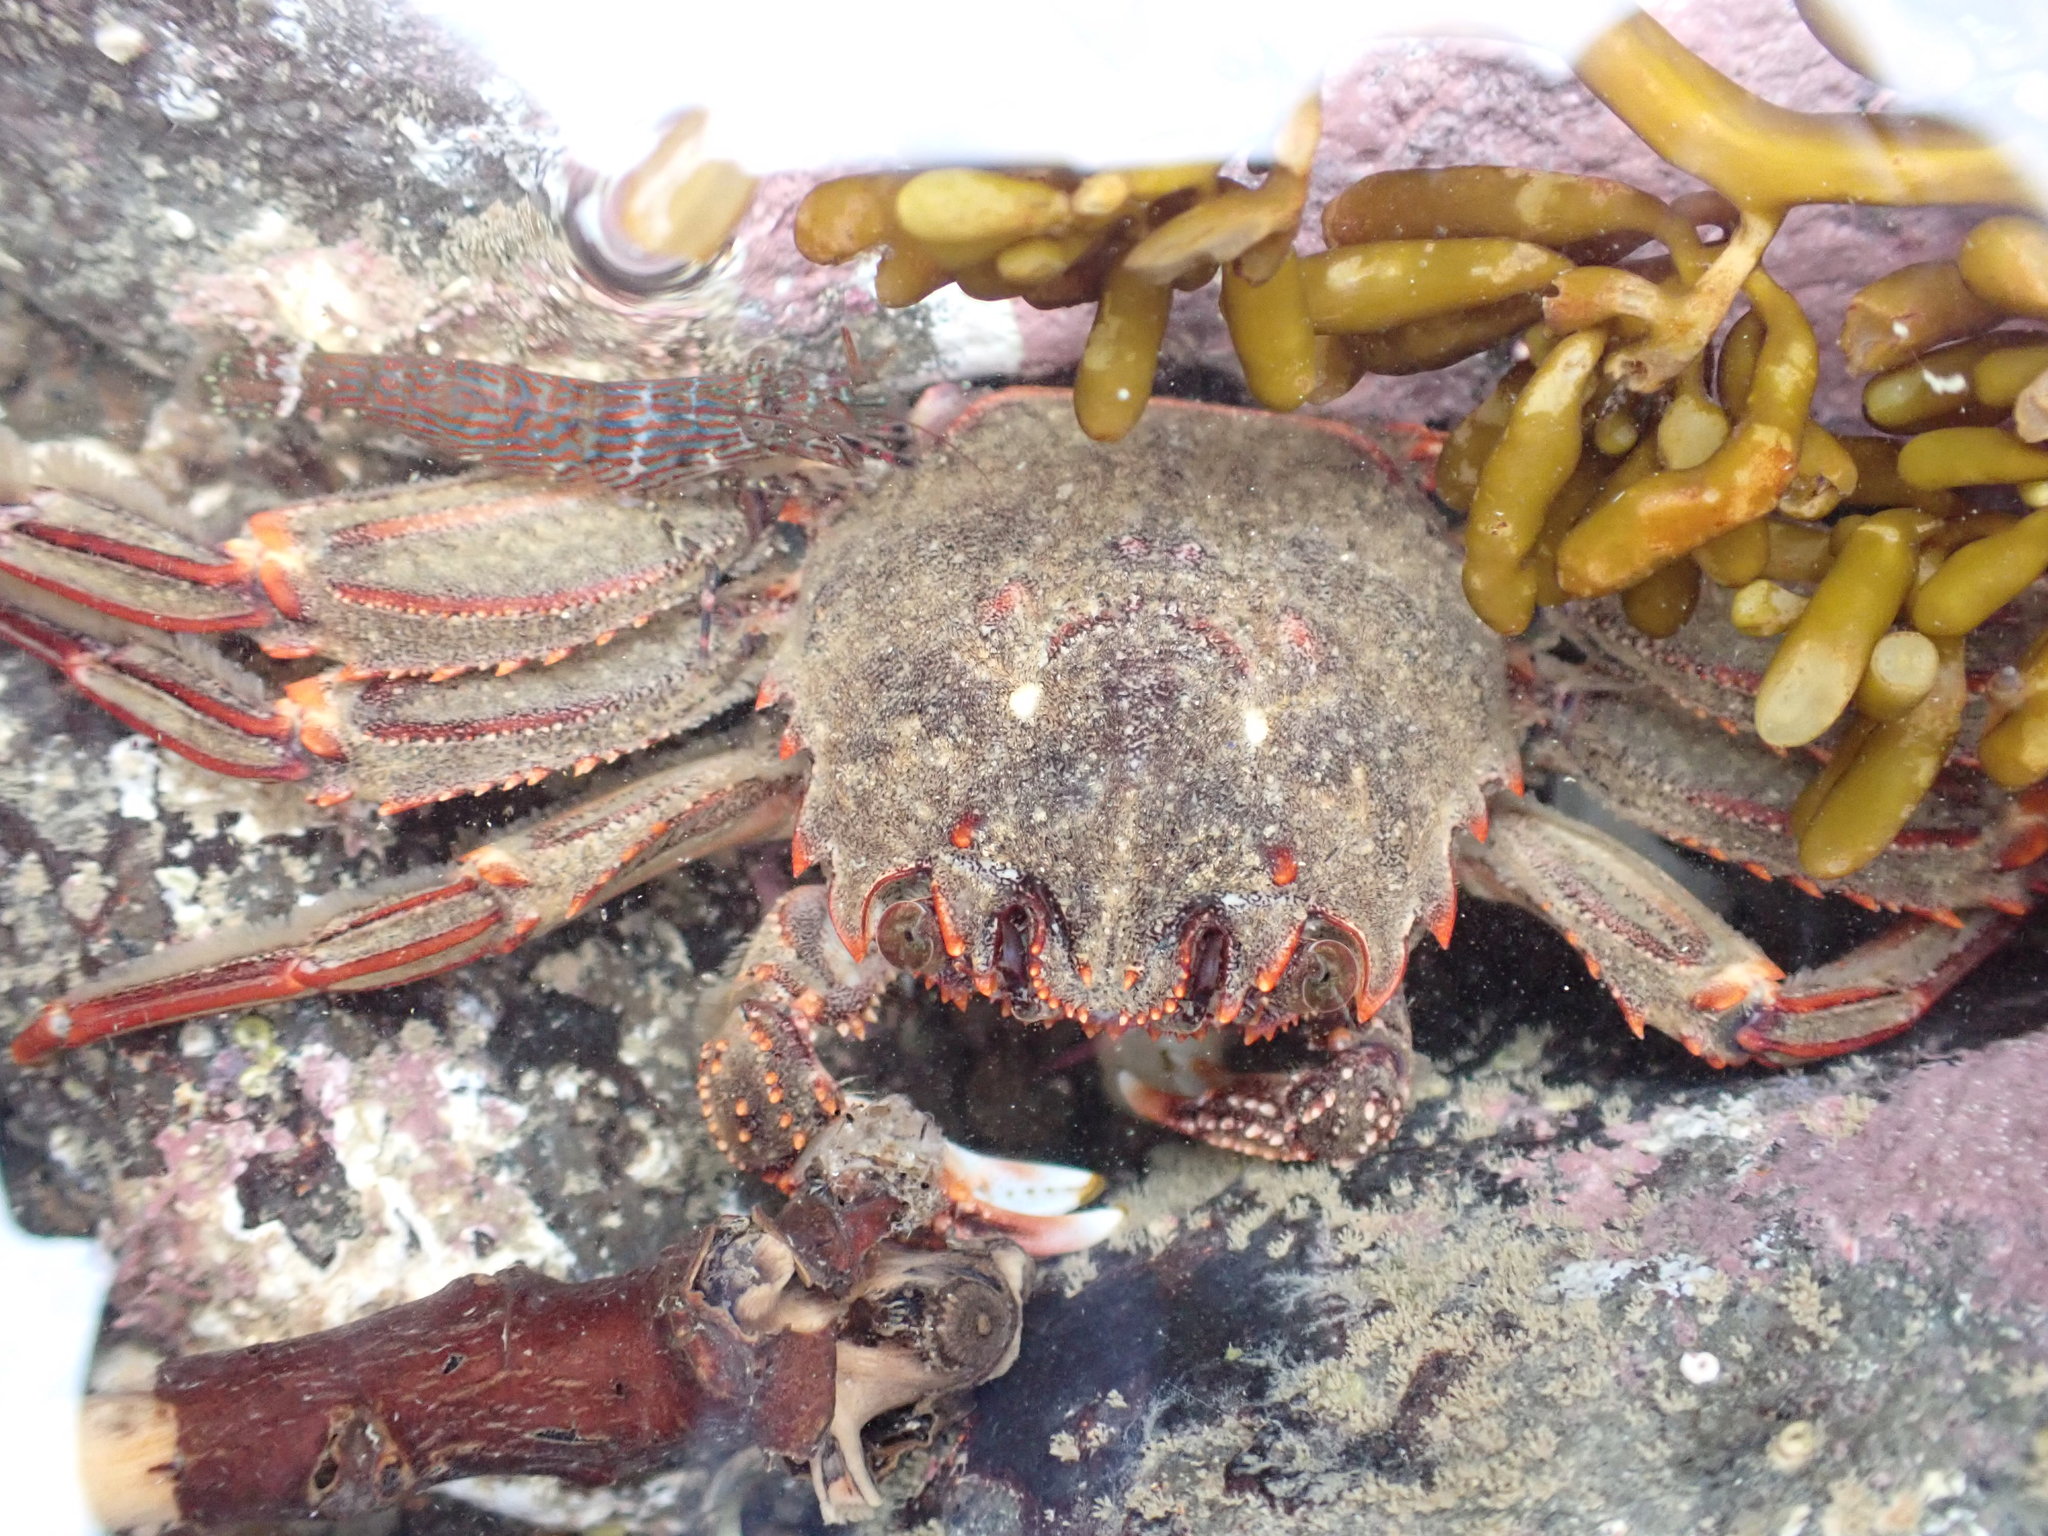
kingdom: Animalia
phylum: Arthropoda
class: Malacostraca
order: Decapoda
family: Plagusiidae
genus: Guinusia
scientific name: Guinusia chabrus
